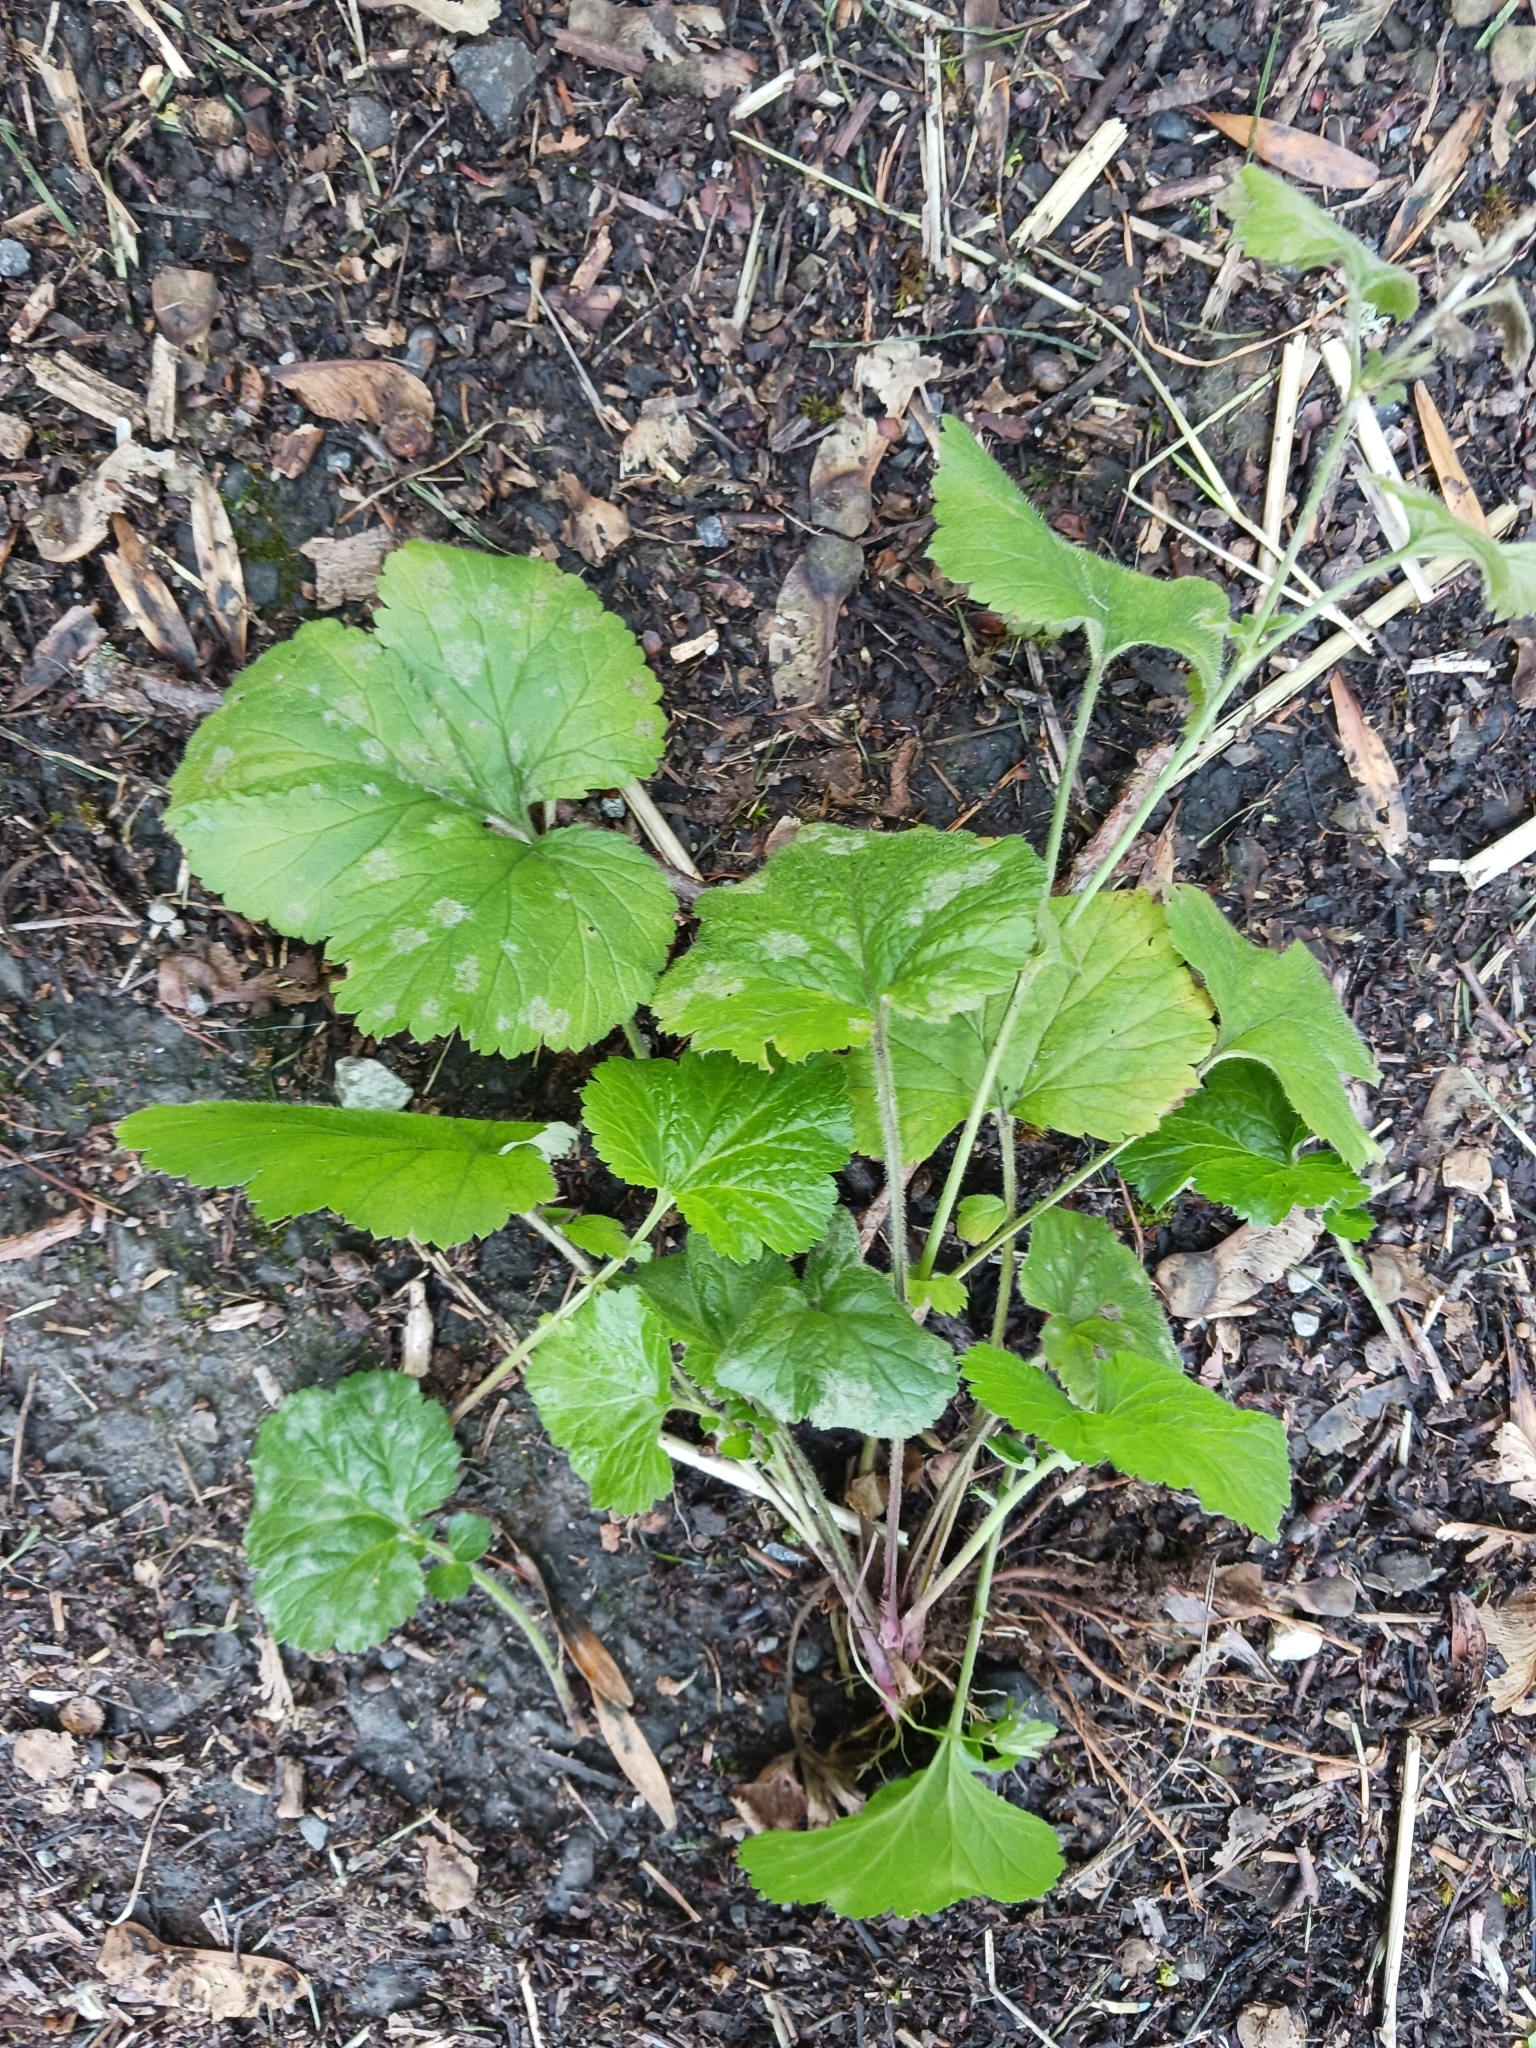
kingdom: Fungi
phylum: Ascomycota
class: Leotiomycetes
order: Helotiales
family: Erysiphaceae
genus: Podosphaera
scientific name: Podosphaera aphanis
